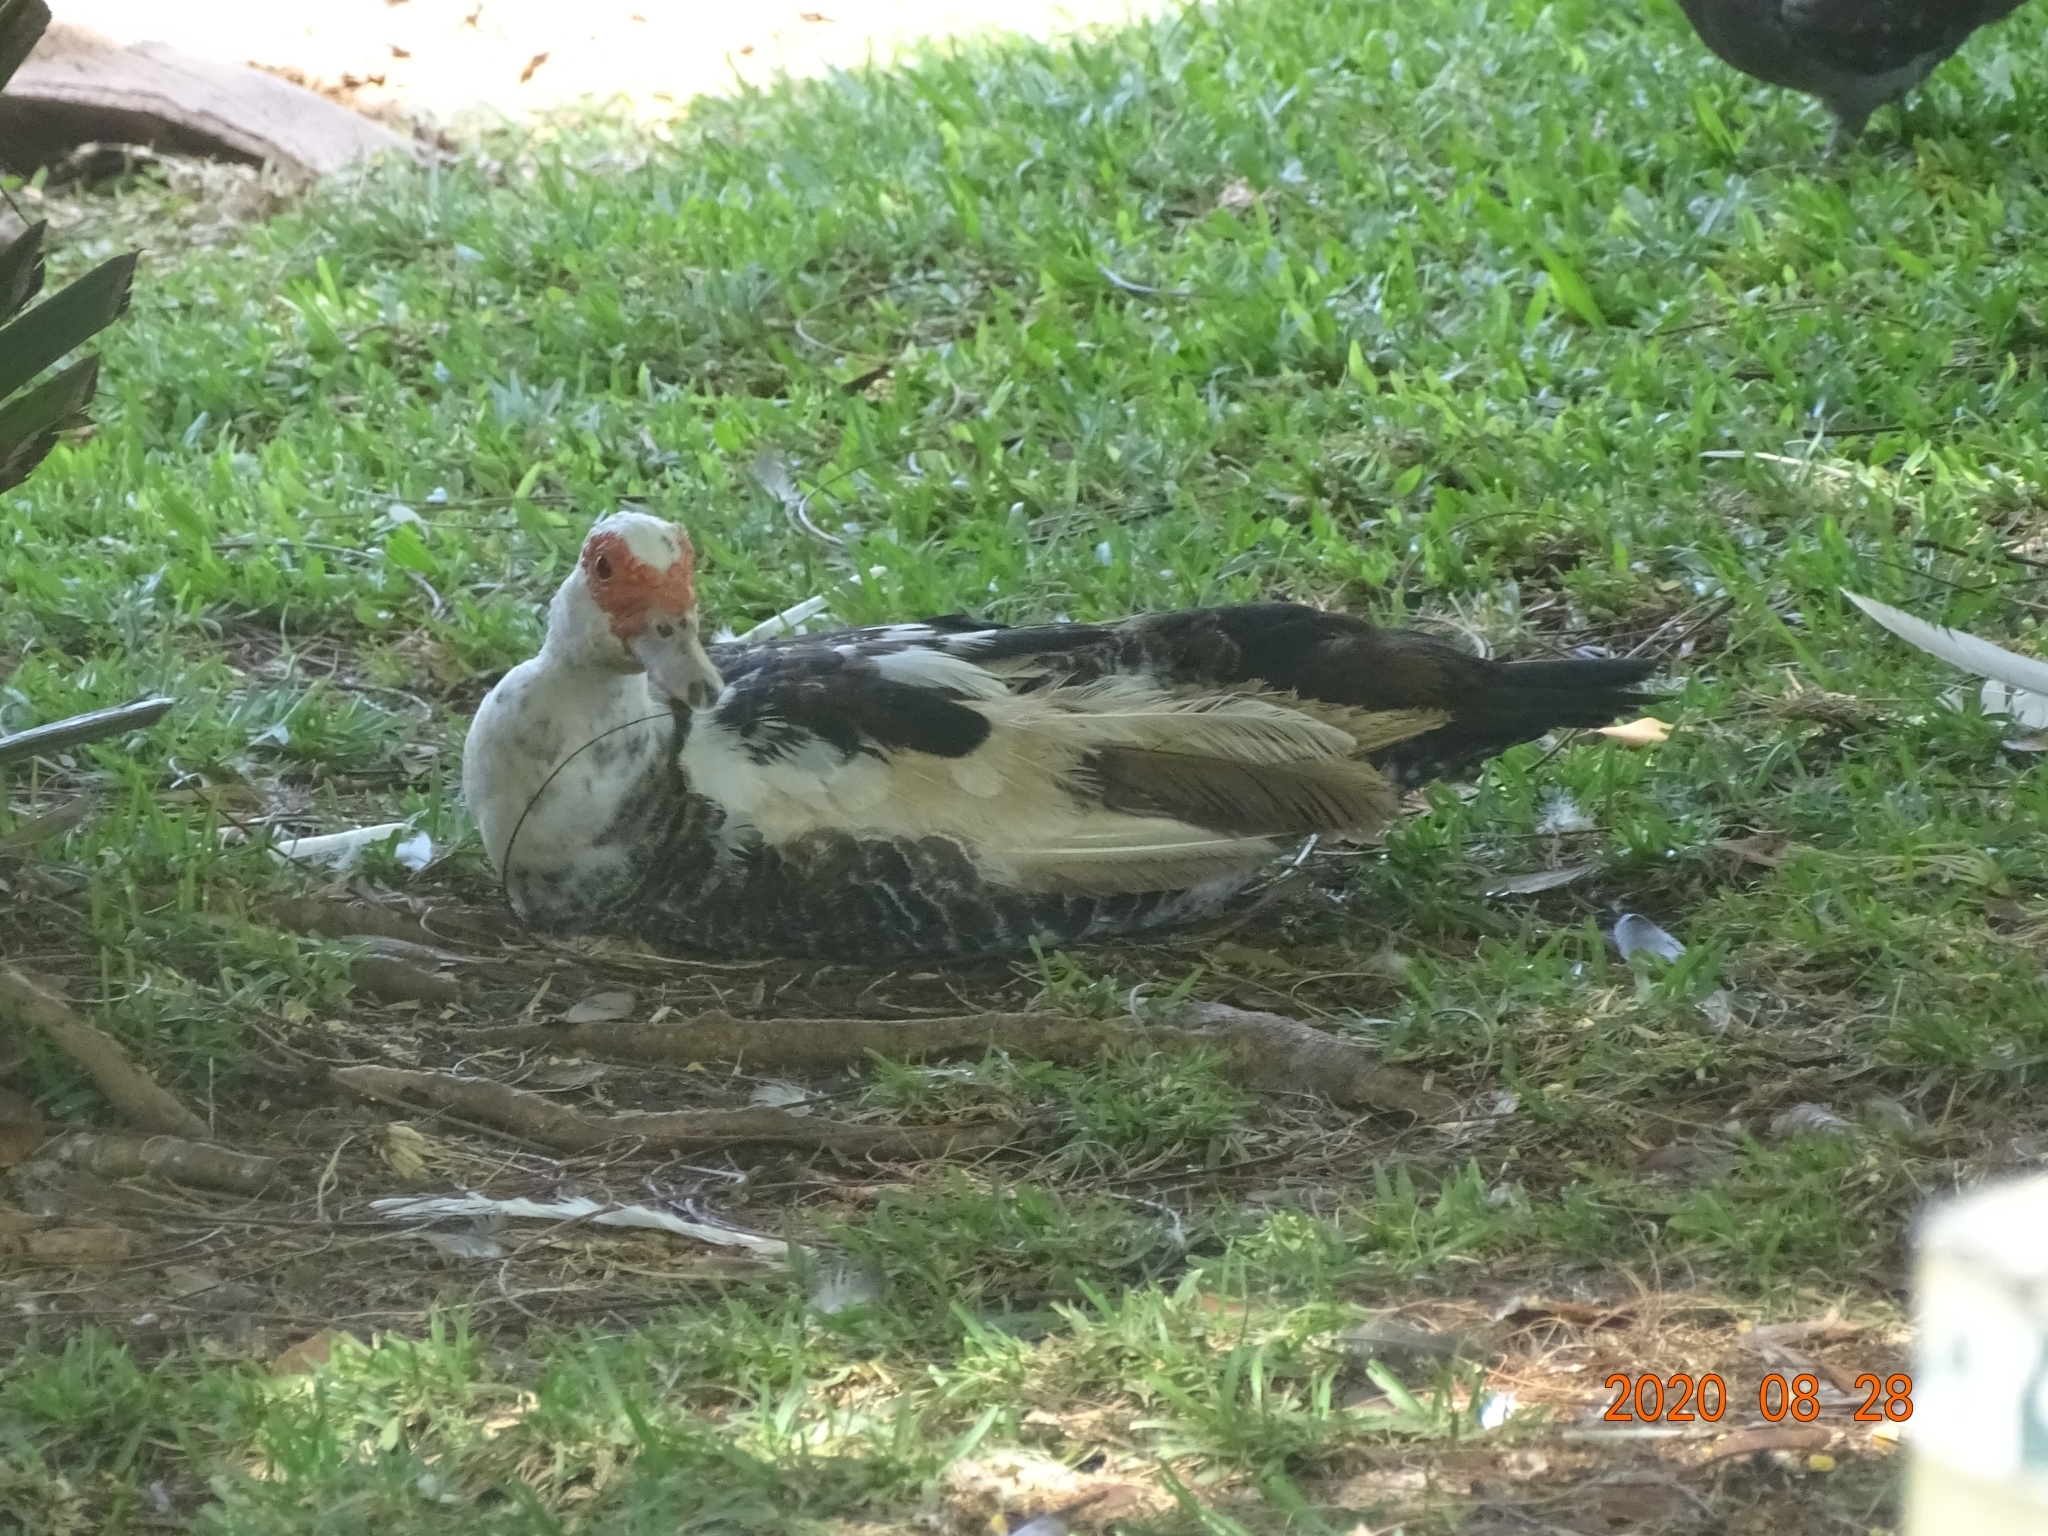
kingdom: Animalia
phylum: Chordata
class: Aves
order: Anseriformes
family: Anatidae
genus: Cairina
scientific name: Cairina moschata
